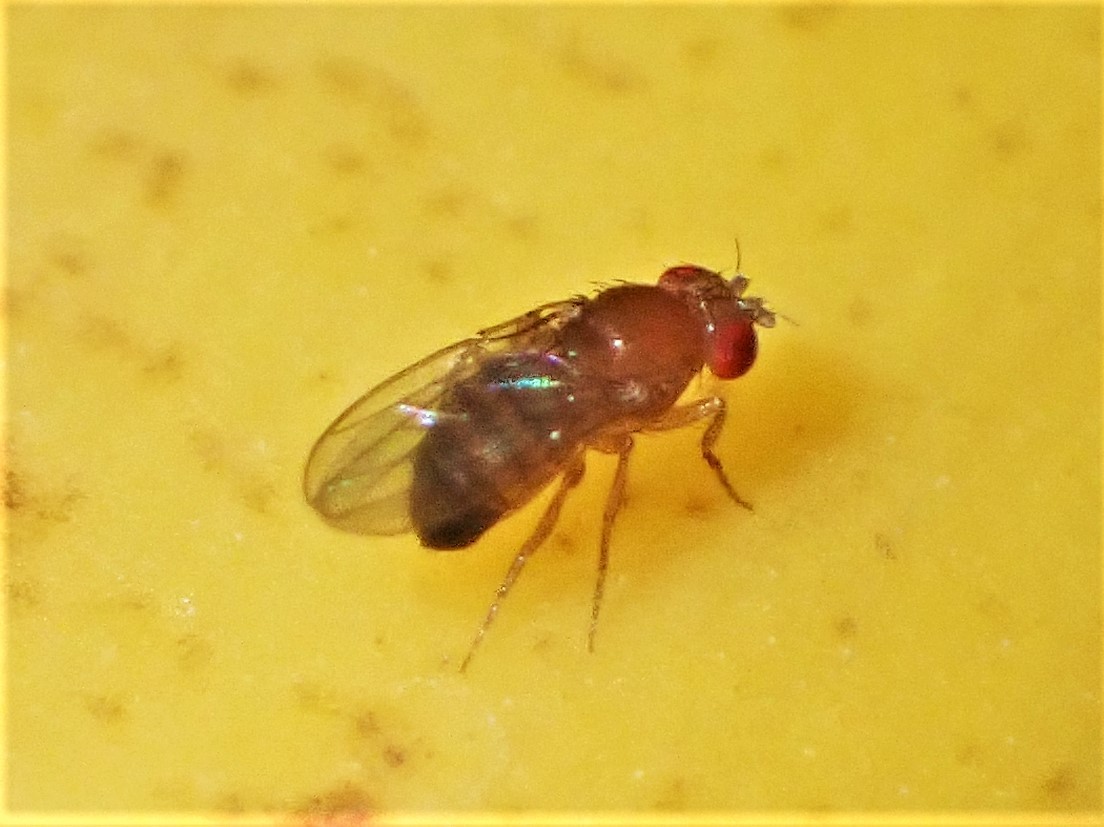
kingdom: Animalia
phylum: Arthropoda
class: Insecta
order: Diptera
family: Drosophilidae
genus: Sophophora
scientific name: Sophophora
